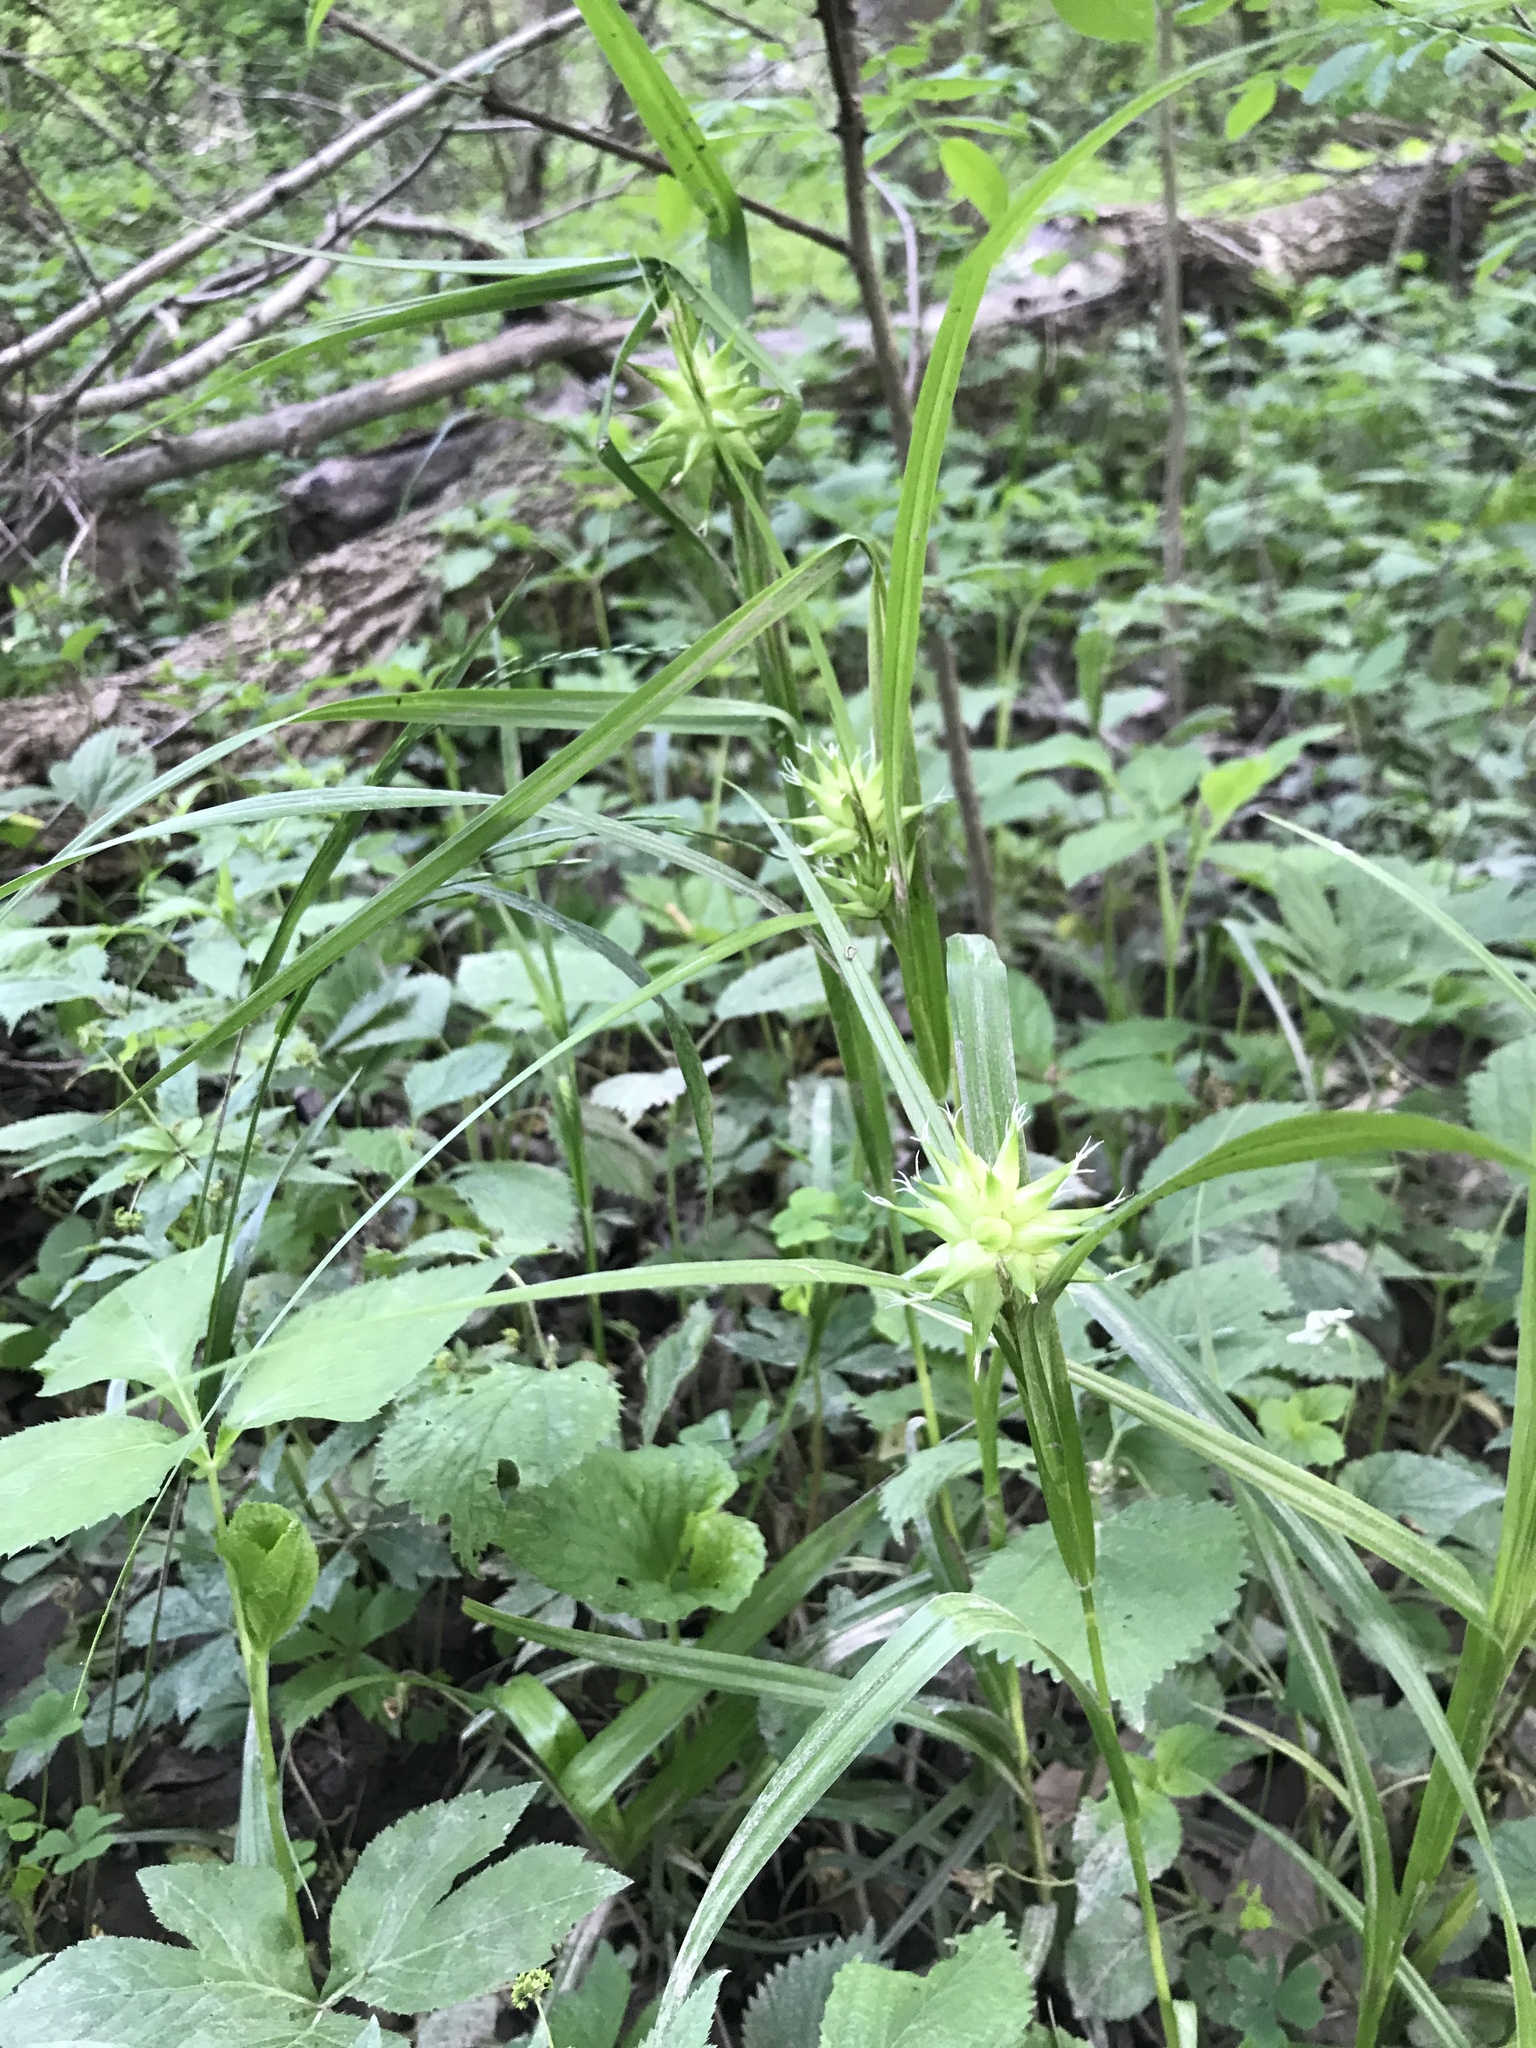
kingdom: Plantae
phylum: Tracheophyta
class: Liliopsida
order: Poales
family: Cyperaceae
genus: Carex
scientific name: Carex grayi
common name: Asa gray's sedge
